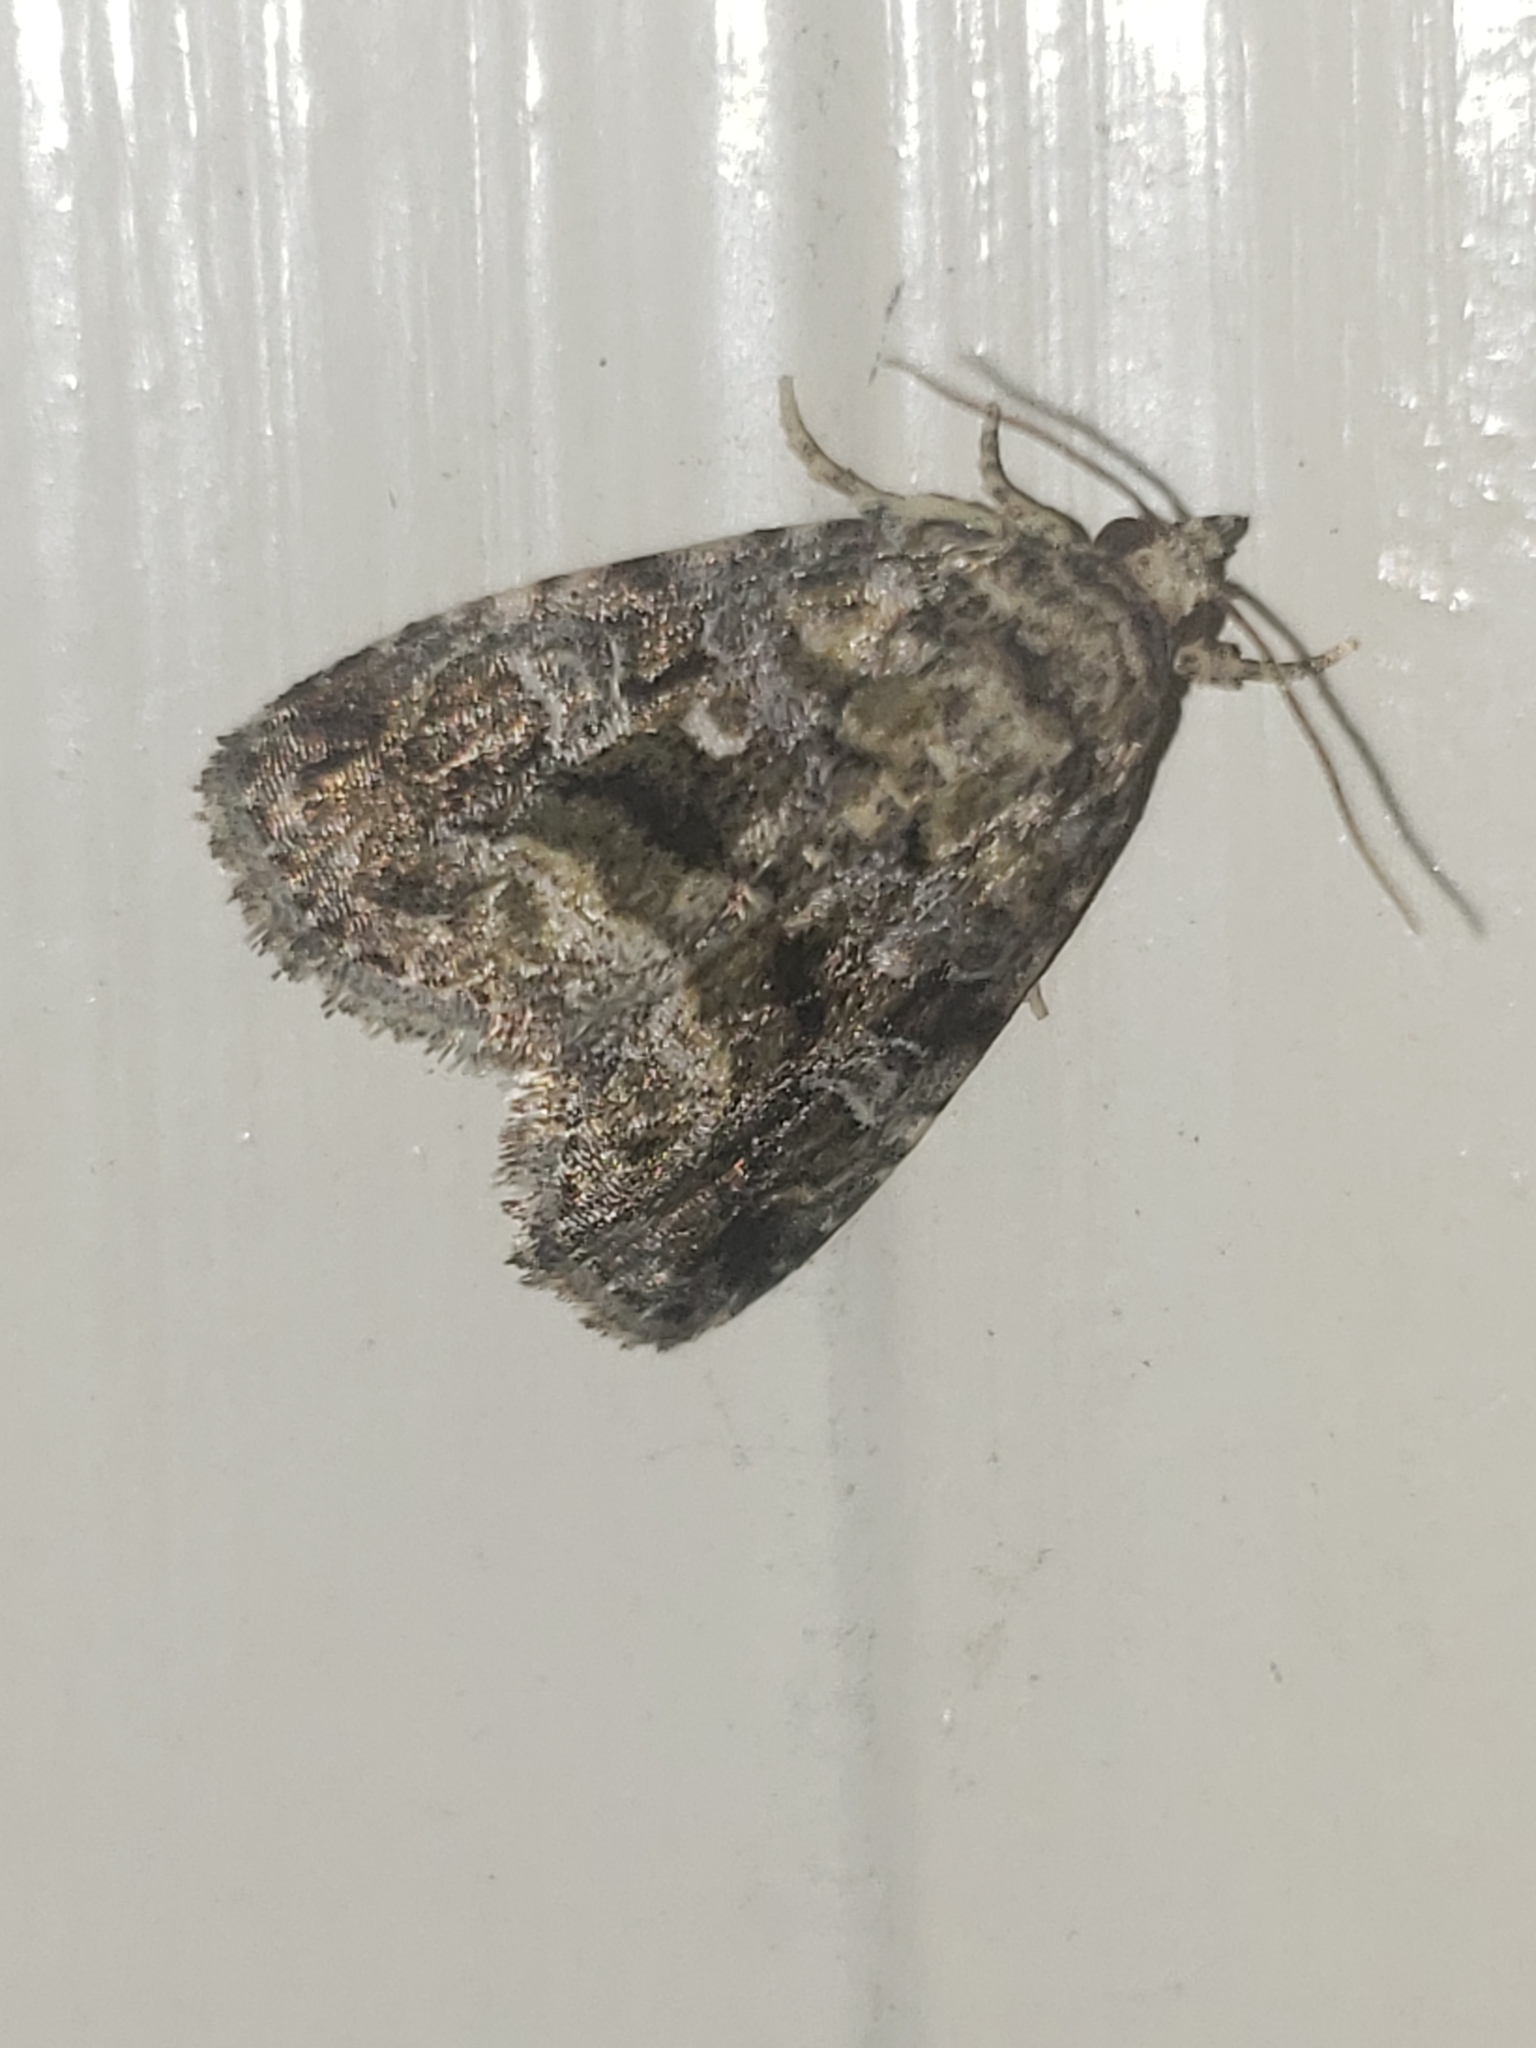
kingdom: Animalia
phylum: Arthropoda
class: Insecta
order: Lepidoptera
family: Noctuidae
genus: Protodeltote
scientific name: Protodeltote muscosula
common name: Large mossy glyph
